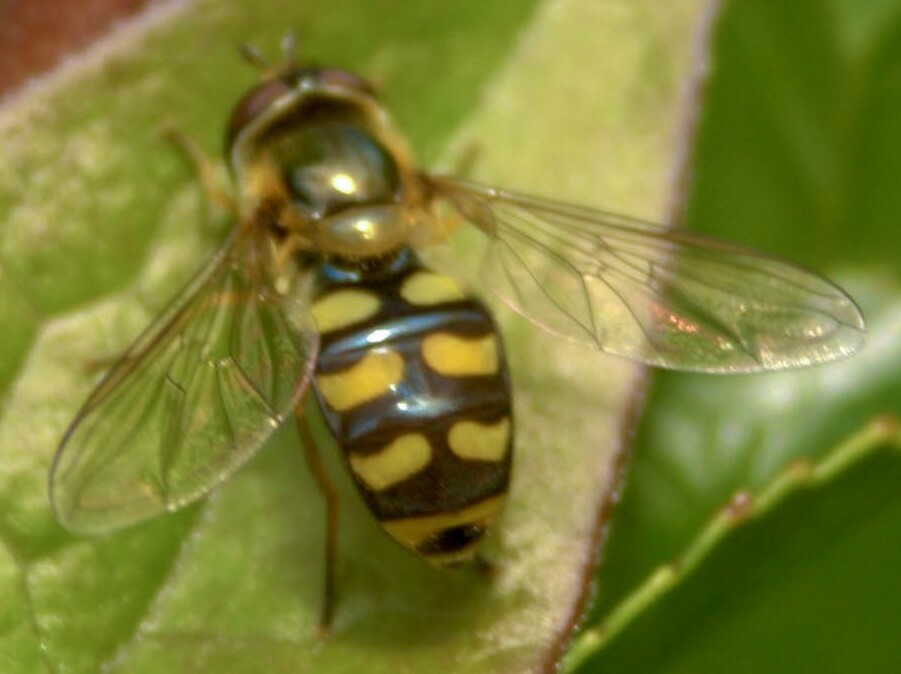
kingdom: Animalia
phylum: Arthropoda
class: Insecta
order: Diptera
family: Syrphidae
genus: Eupeodes
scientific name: Eupeodes
